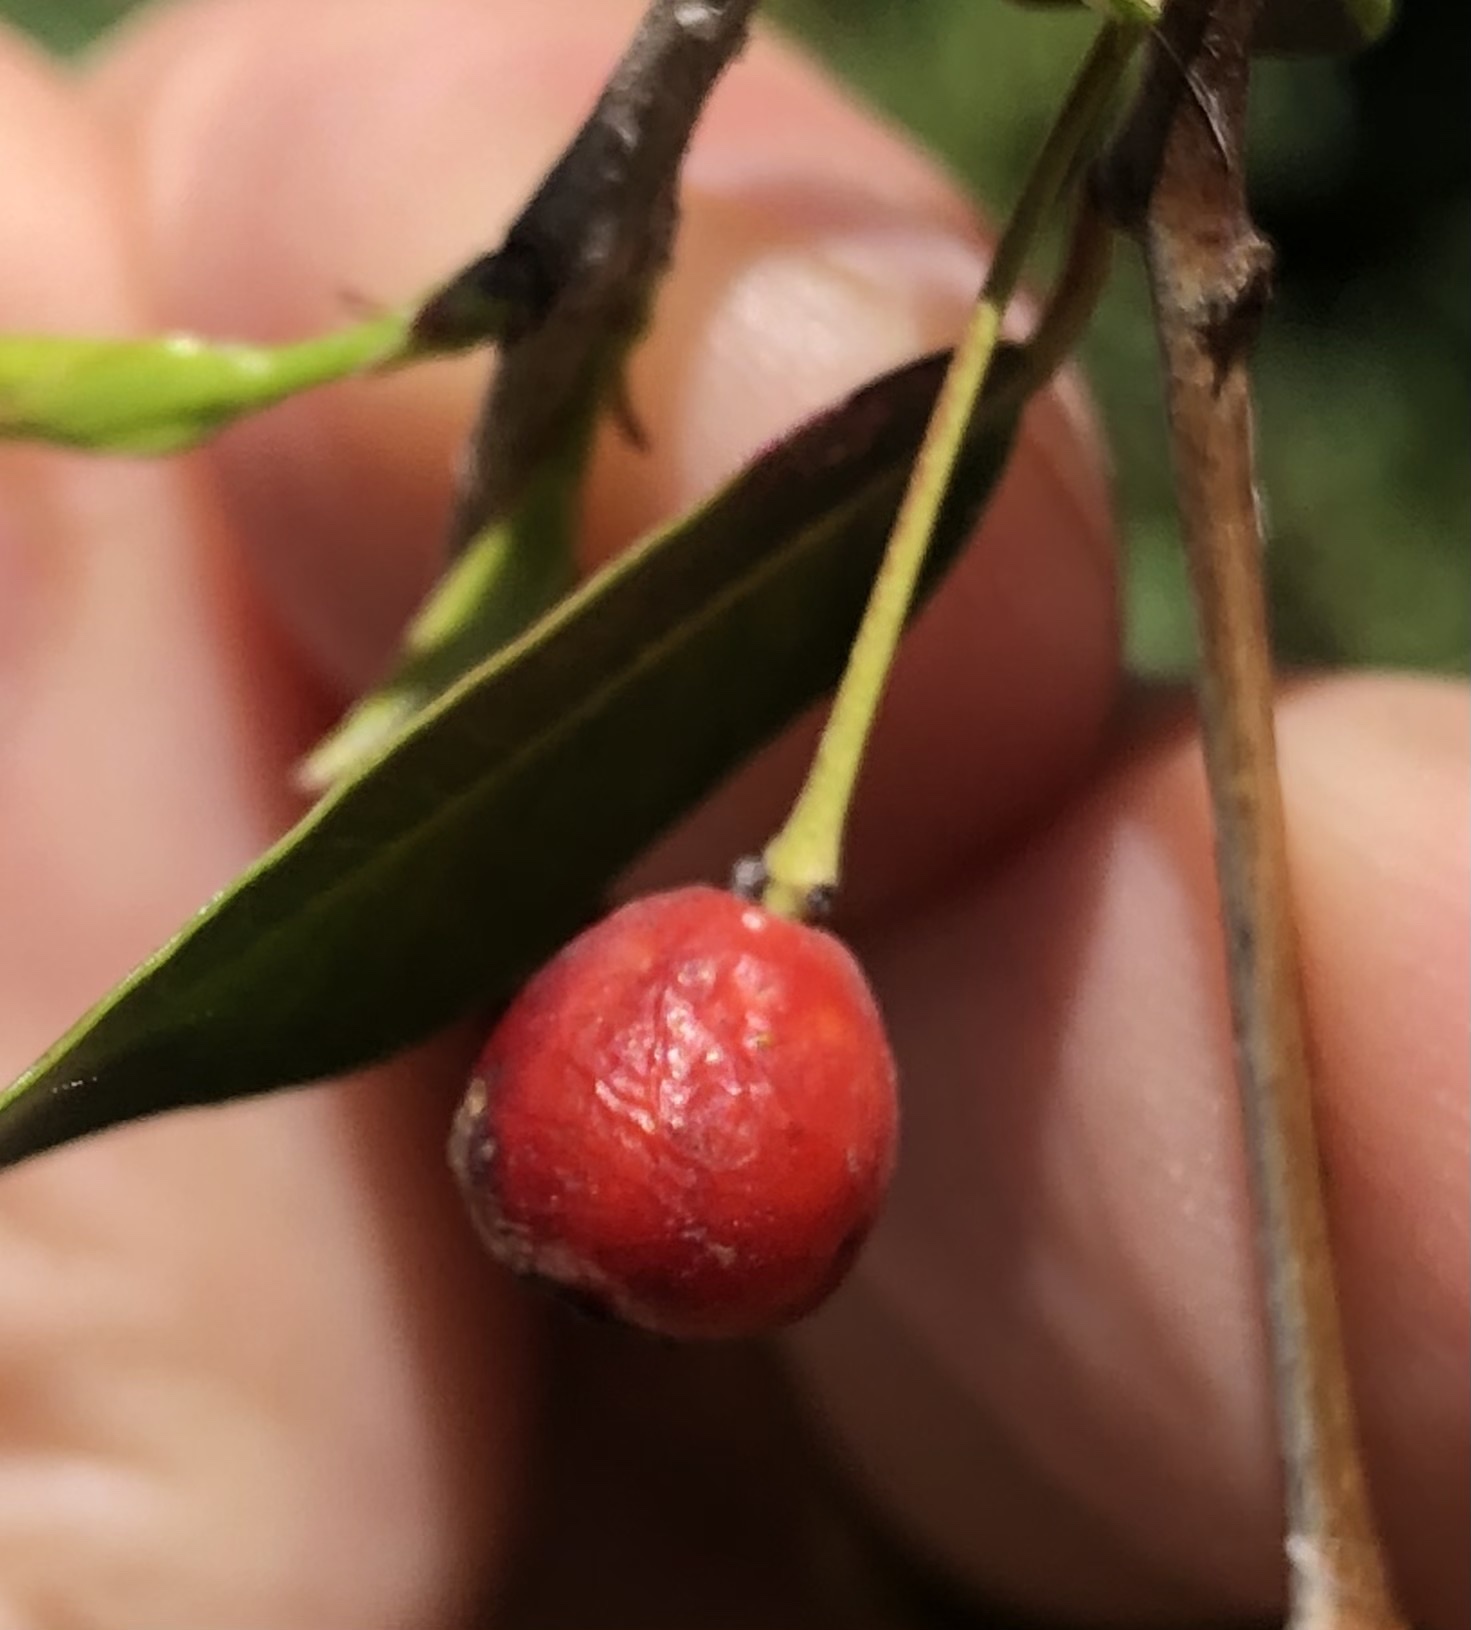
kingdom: Plantae
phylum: Tracheophyta
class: Magnoliopsida
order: Myrtales
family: Myrtaceae
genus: Blepharocalyx
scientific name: Blepharocalyx salicifolius
